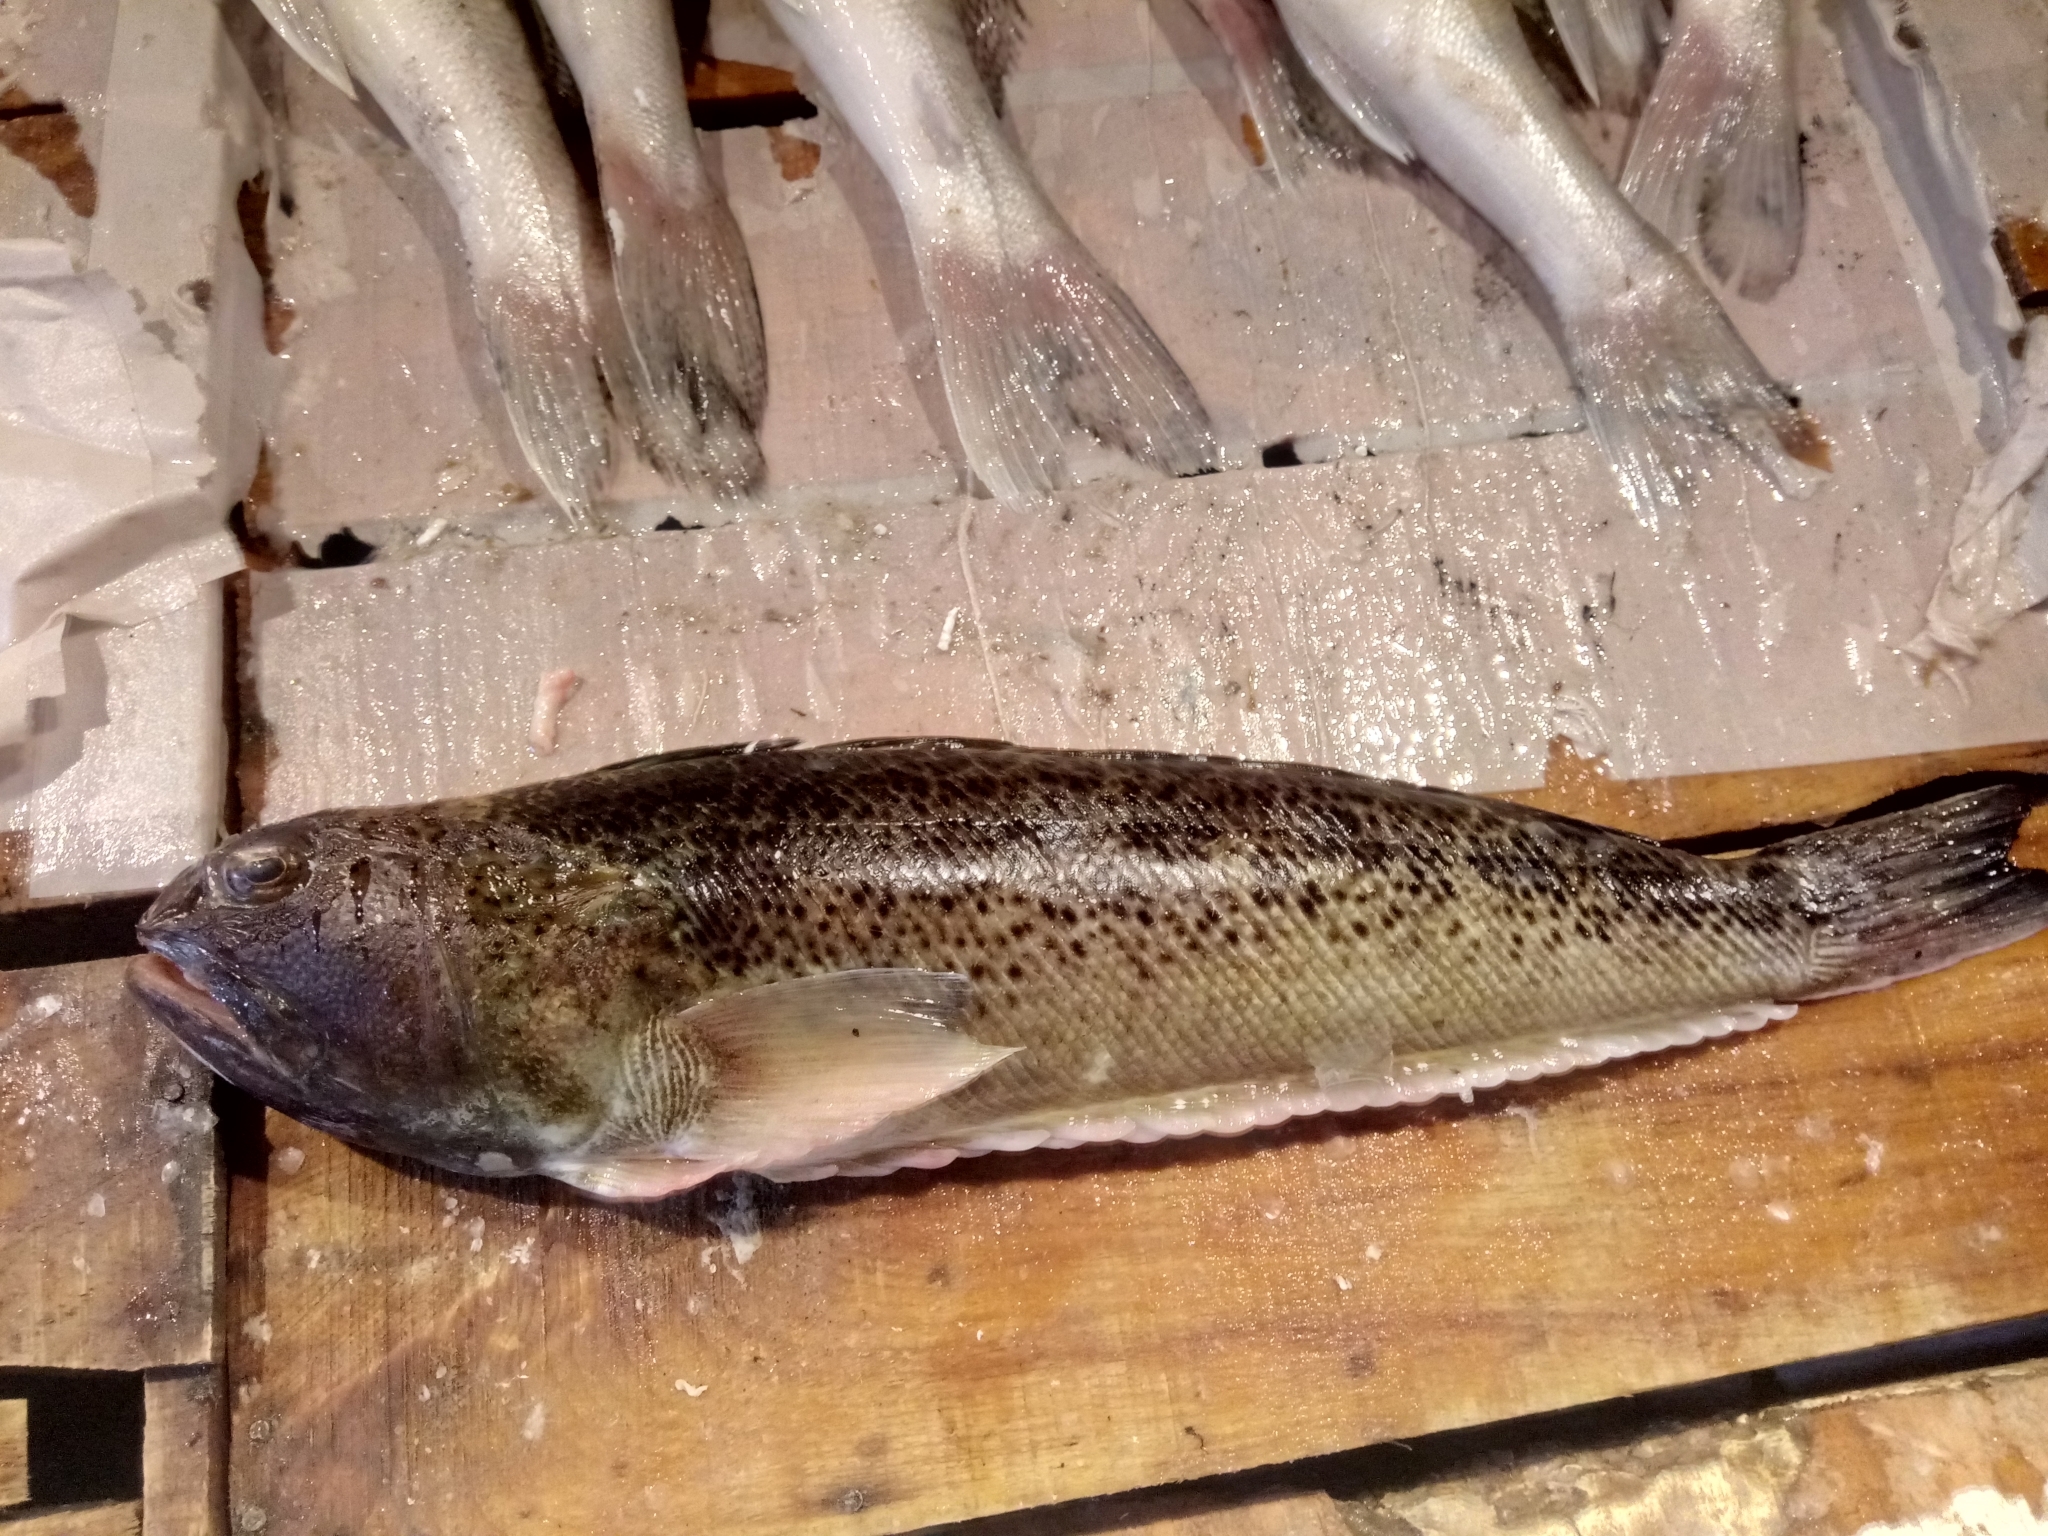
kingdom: Animalia
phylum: Chordata
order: Perciformes
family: Trachinidae
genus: Trachinus
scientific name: Trachinus radiatus
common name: Starry weever
